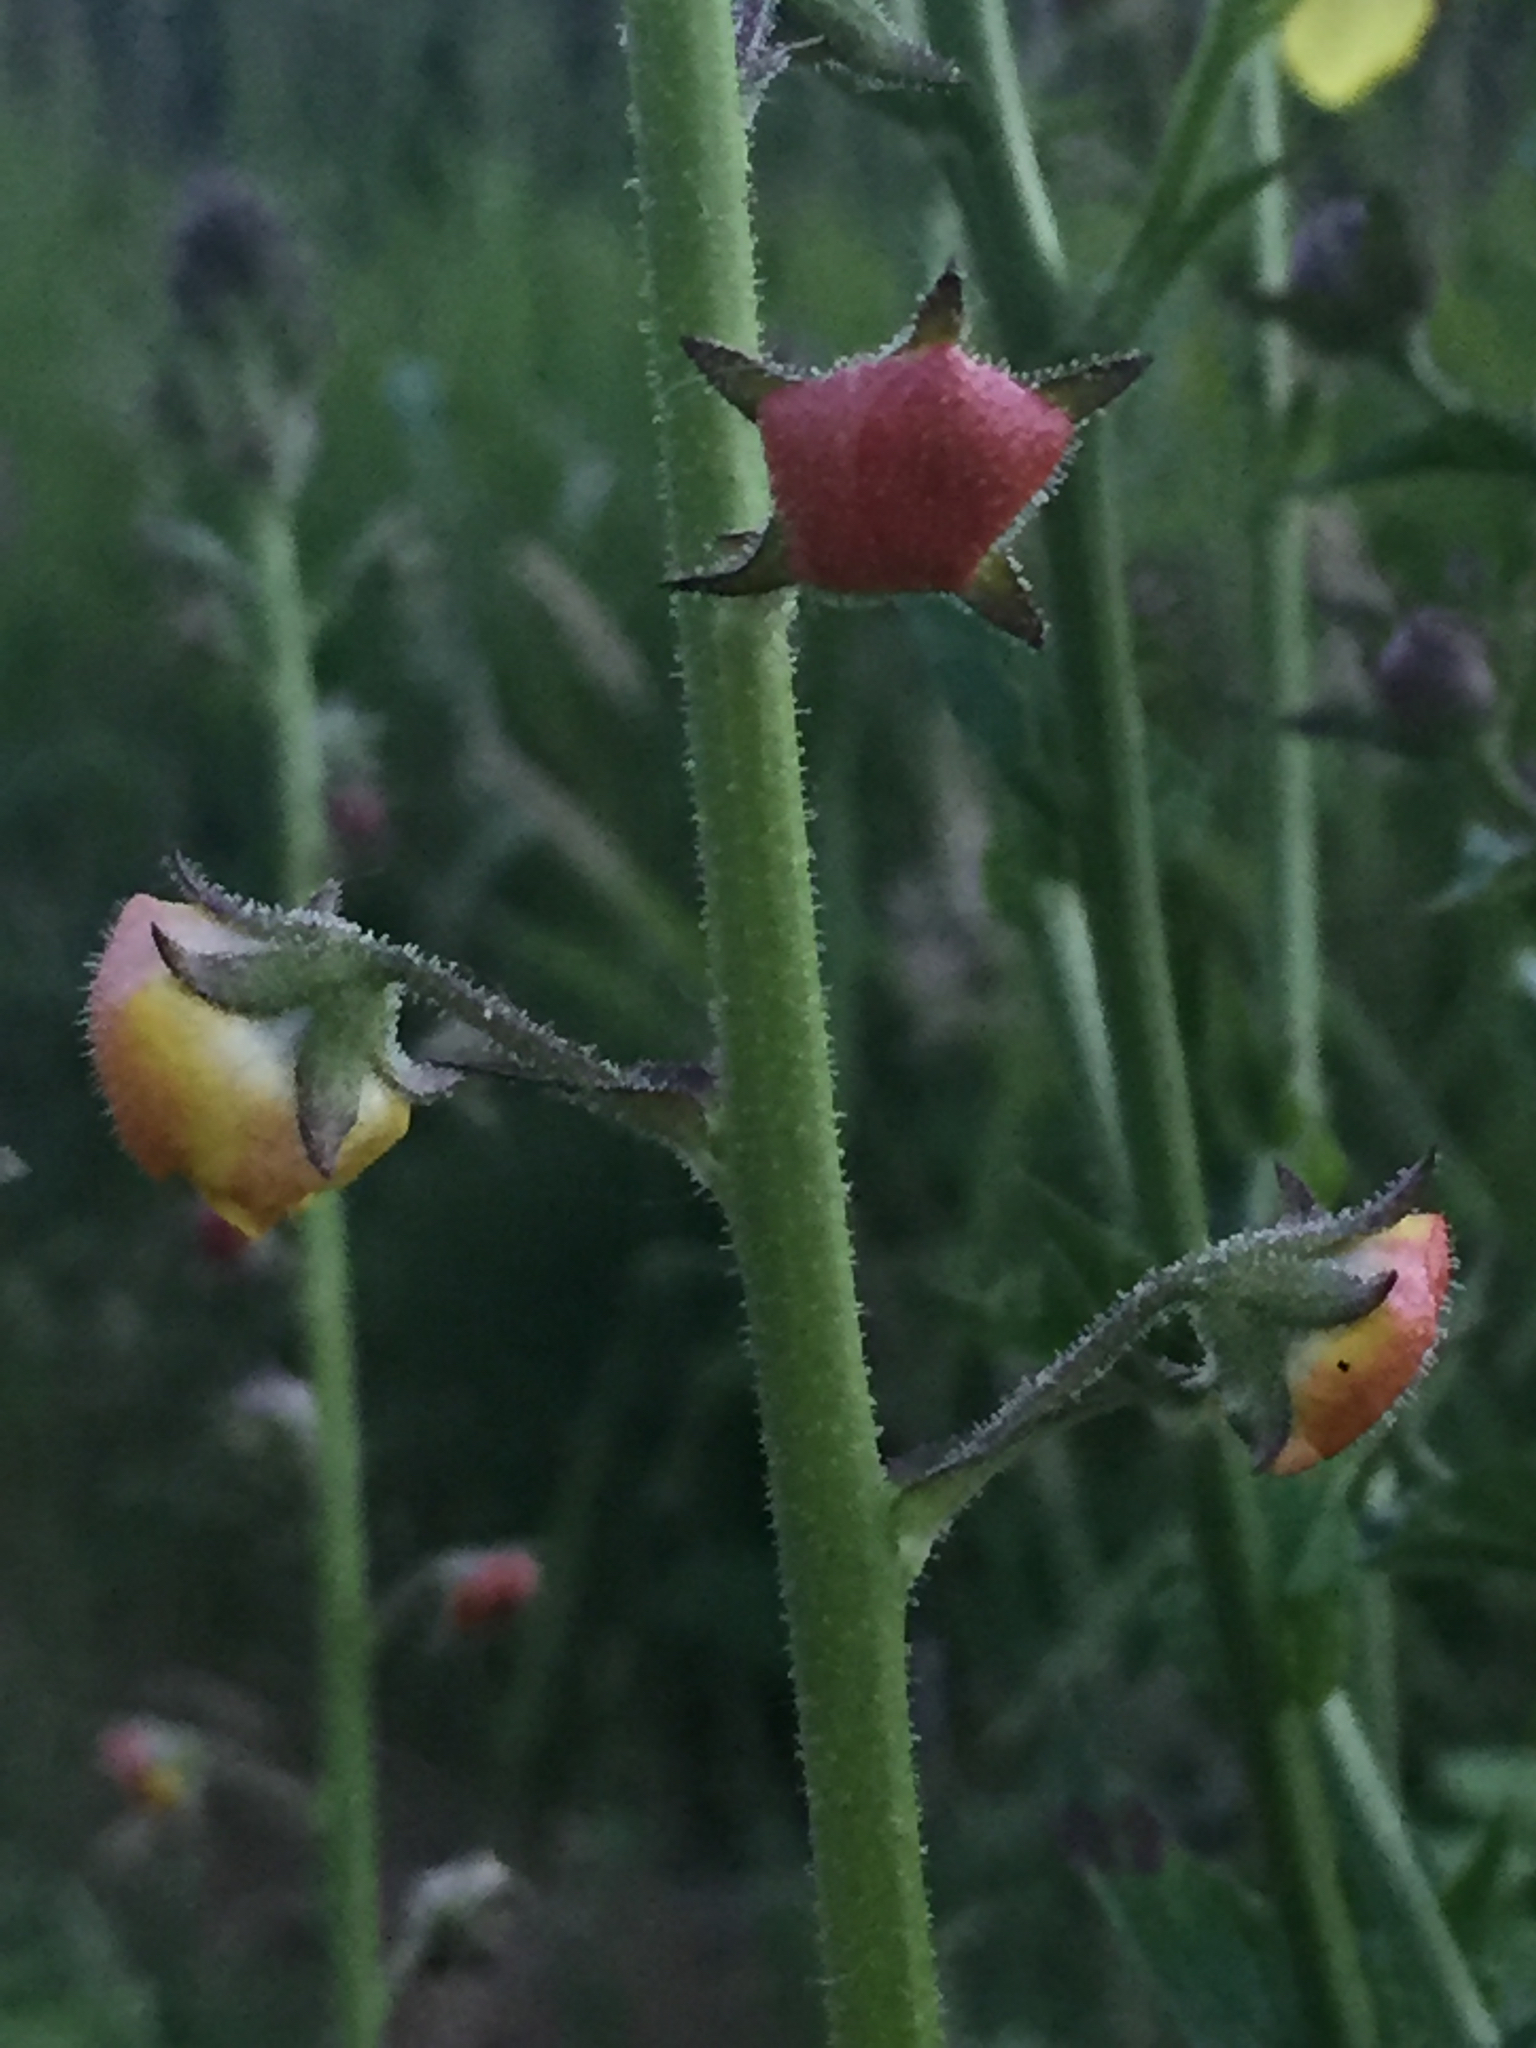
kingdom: Plantae
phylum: Tracheophyta
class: Magnoliopsida
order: Lamiales
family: Scrophulariaceae
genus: Verbascum
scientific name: Verbascum blattaria
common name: Moth mullein
